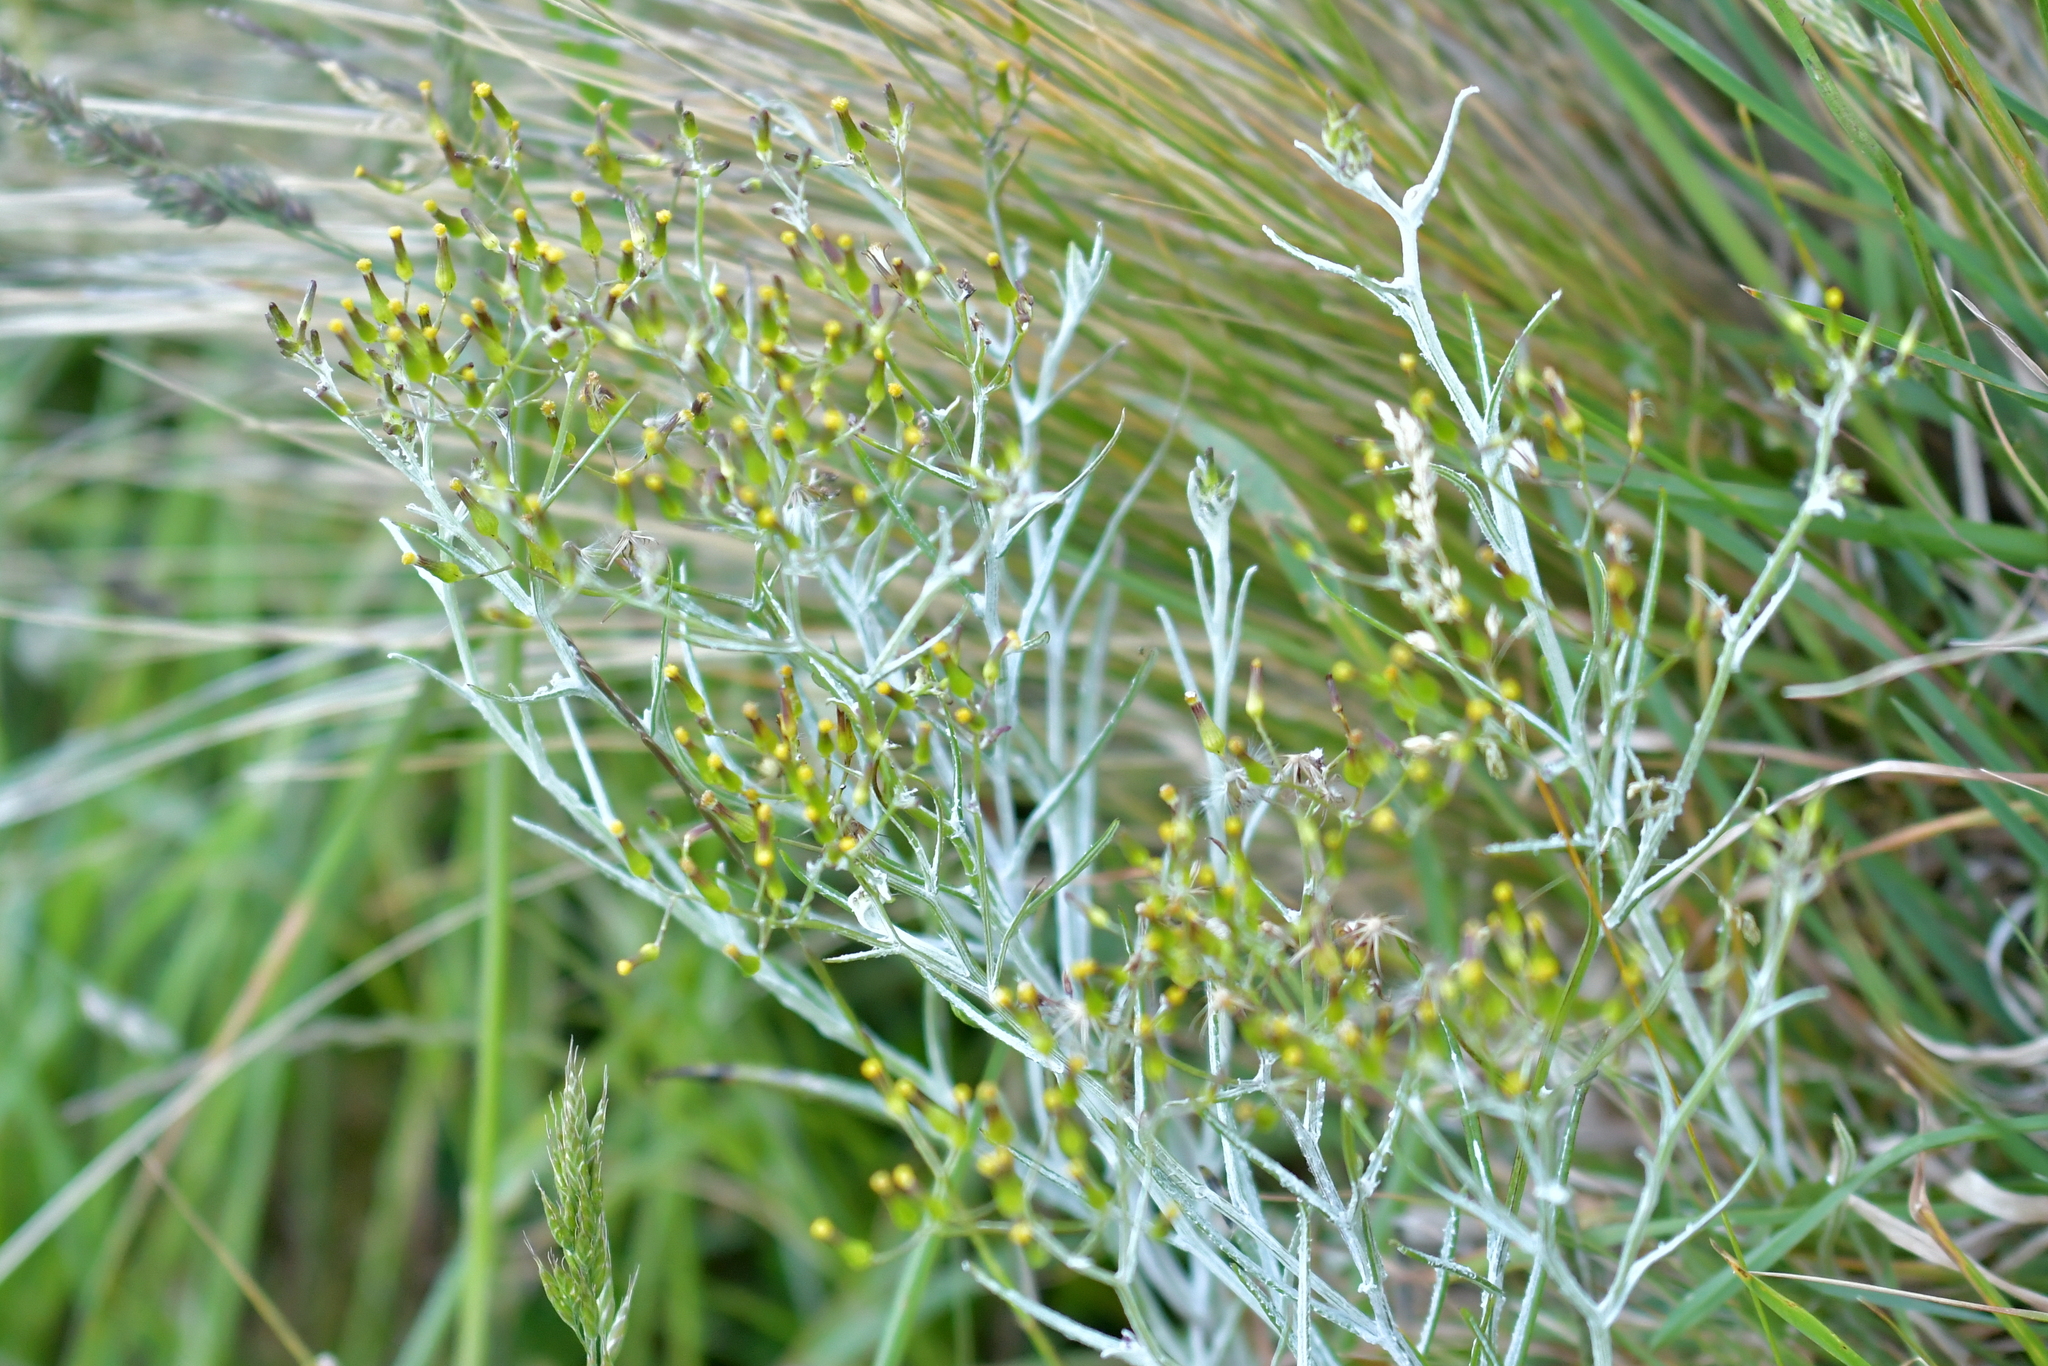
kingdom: Plantae
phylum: Tracheophyta
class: Magnoliopsida
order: Asterales
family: Asteraceae
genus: Senecio
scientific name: Senecio quadridentatus
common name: Cotton fireweed
